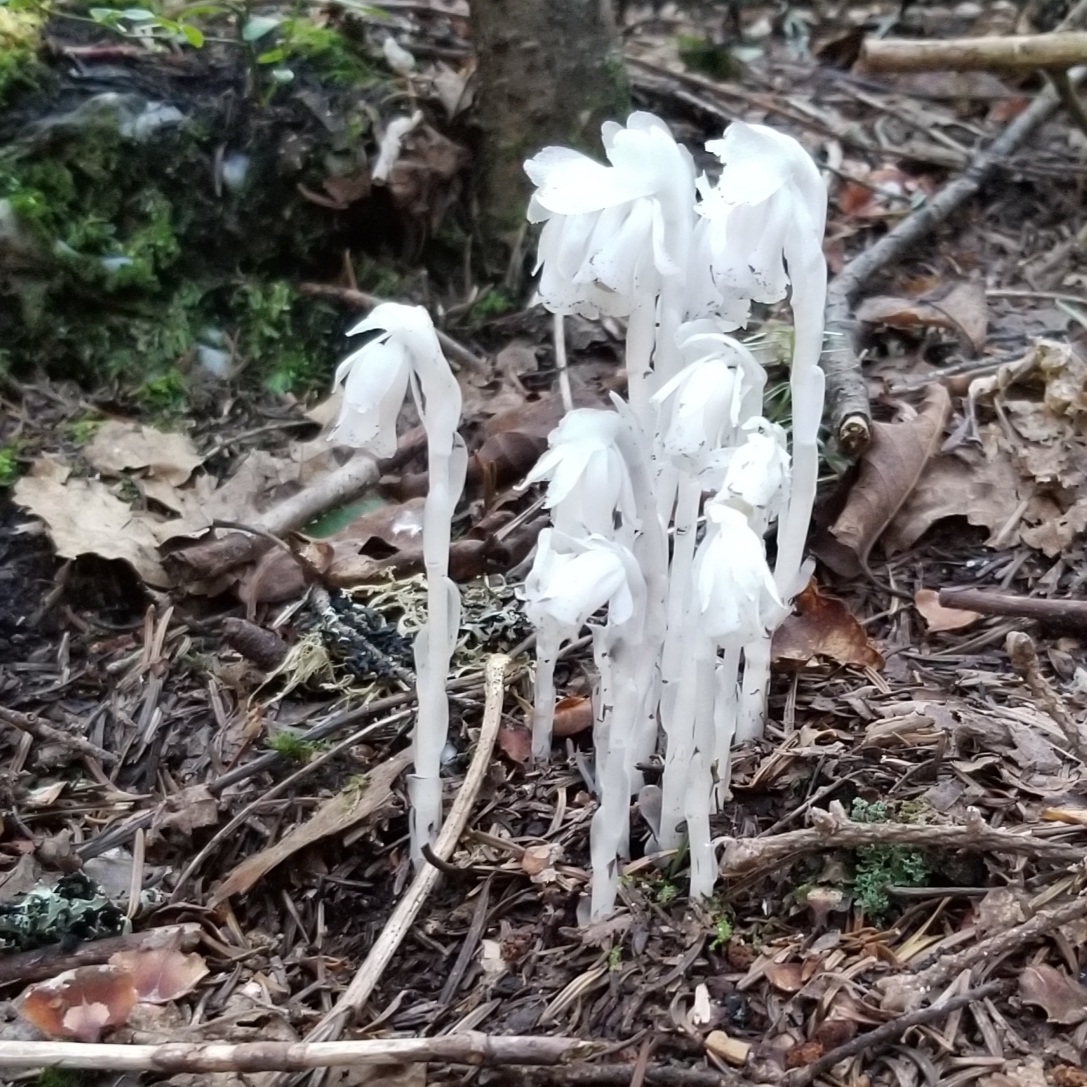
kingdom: Plantae
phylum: Tracheophyta
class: Magnoliopsida
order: Ericales
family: Ericaceae
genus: Monotropa
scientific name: Monotropa uniflora
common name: Convulsion root
